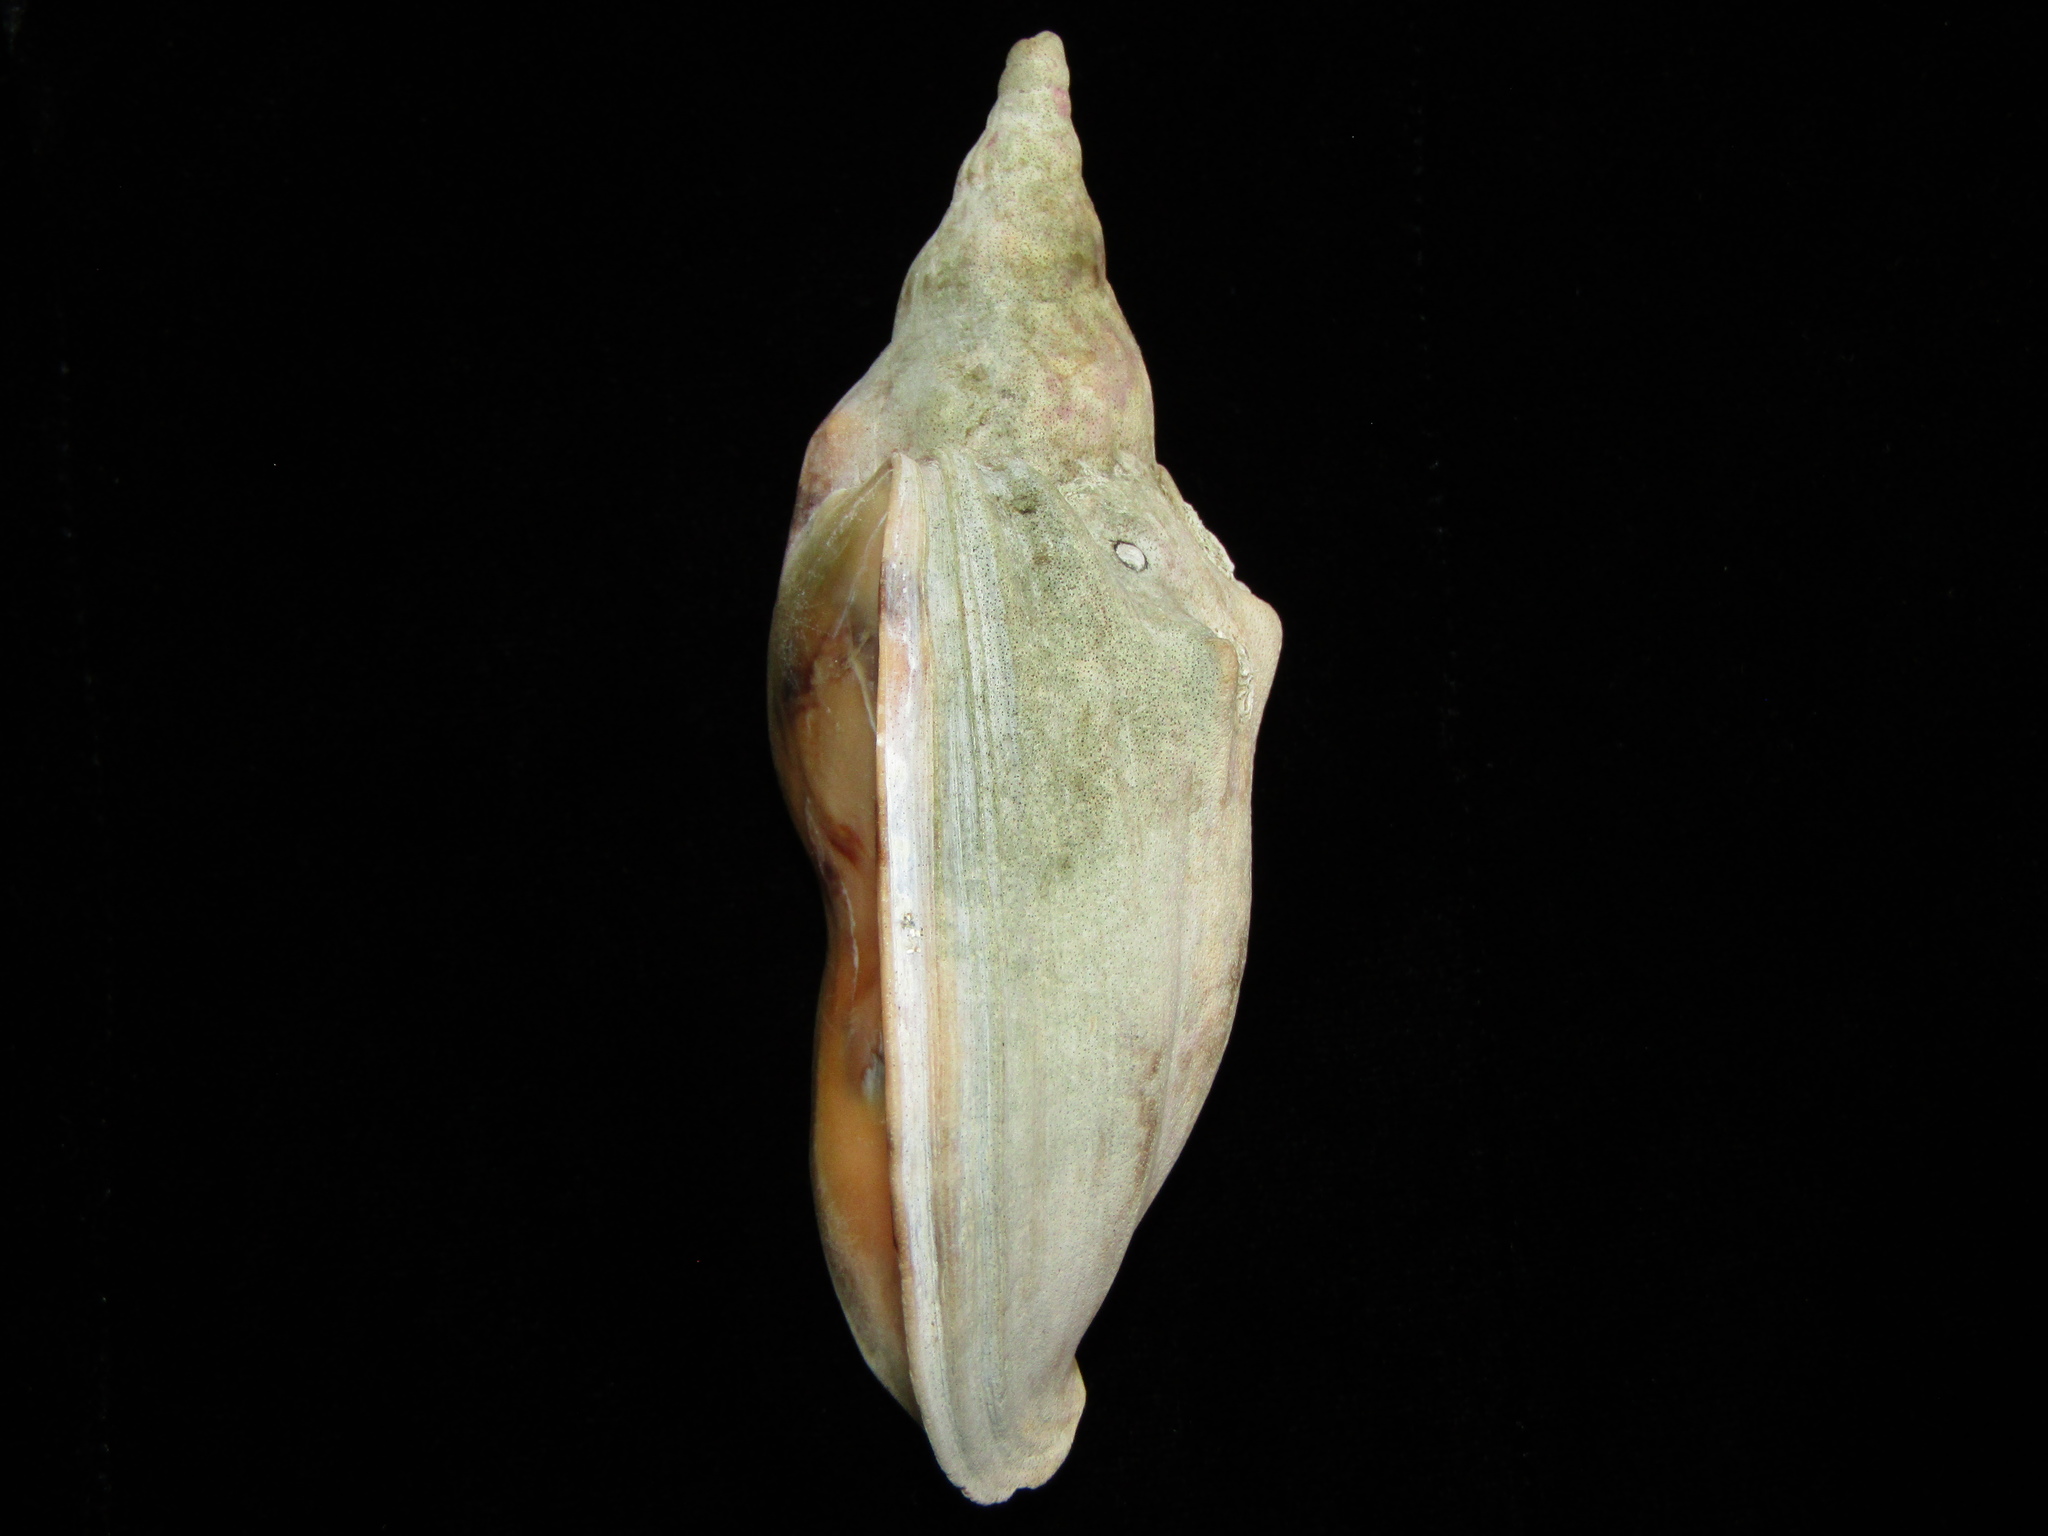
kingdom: Animalia
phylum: Mollusca
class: Gastropoda
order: Neogastropoda
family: Volutidae
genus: Alcithoe
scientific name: Alcithoe arabica
